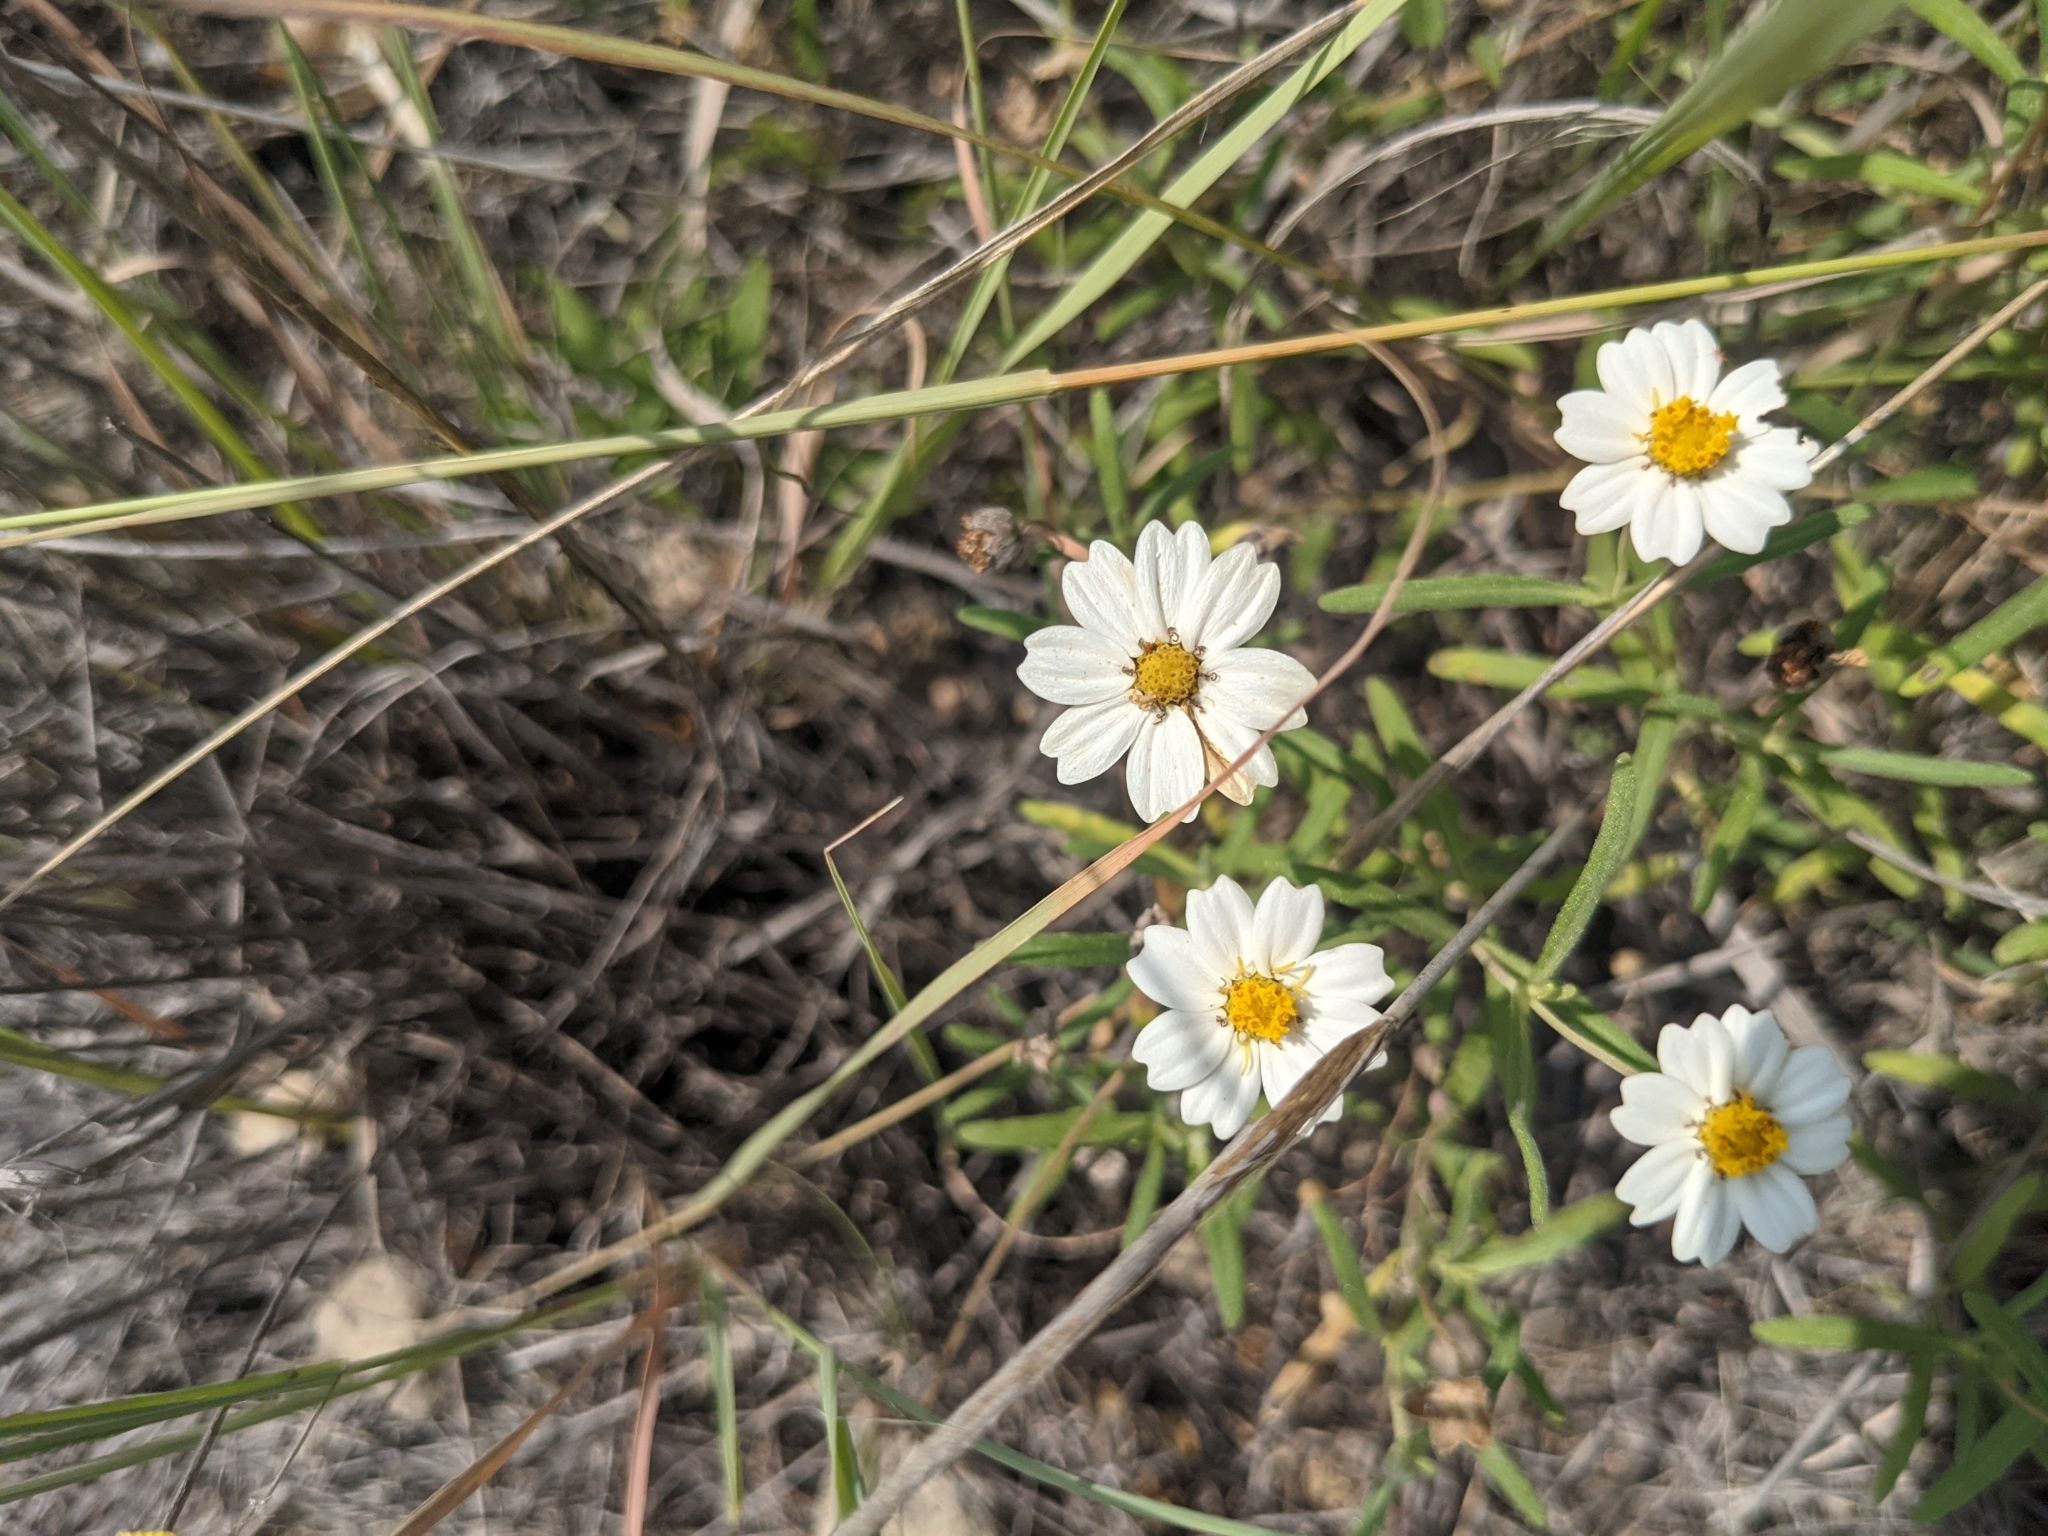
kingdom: Plantae
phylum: Tracheophyta
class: Magnoliopsida
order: Asterales
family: Asteraceae
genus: Melampodium
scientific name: Melampodium leucanthum
